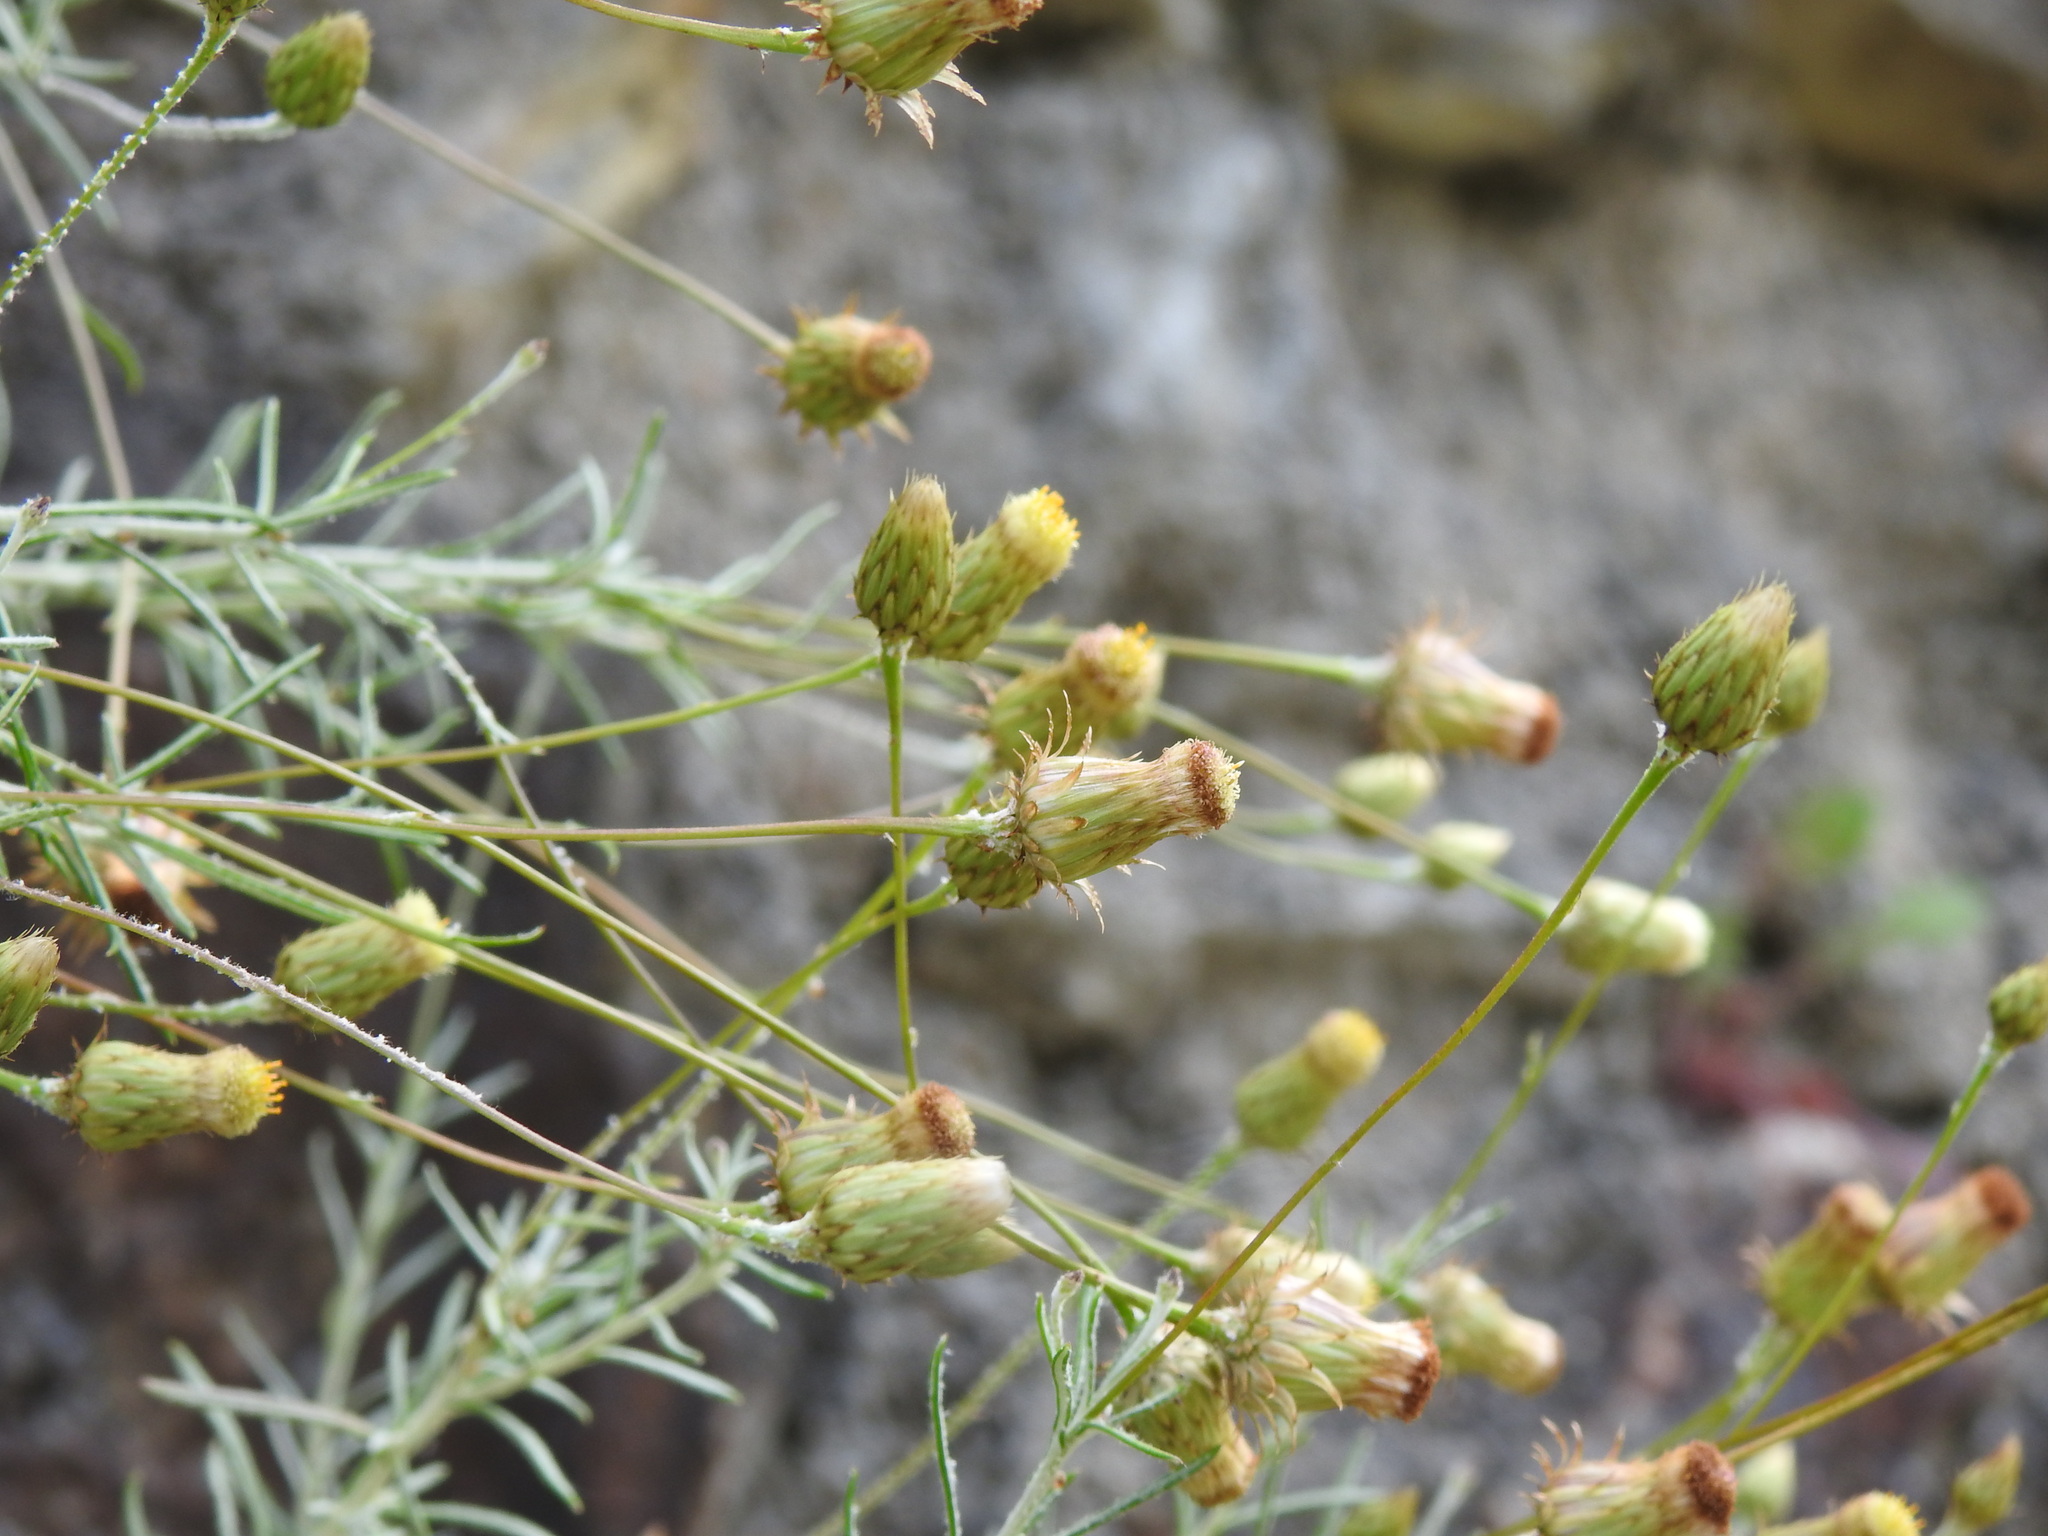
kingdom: Plantae
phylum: Tracheophyta
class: Magnoliopsida
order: Asterales
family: Asteraceae
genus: Phagnalon
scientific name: Phagnalon saxatile
